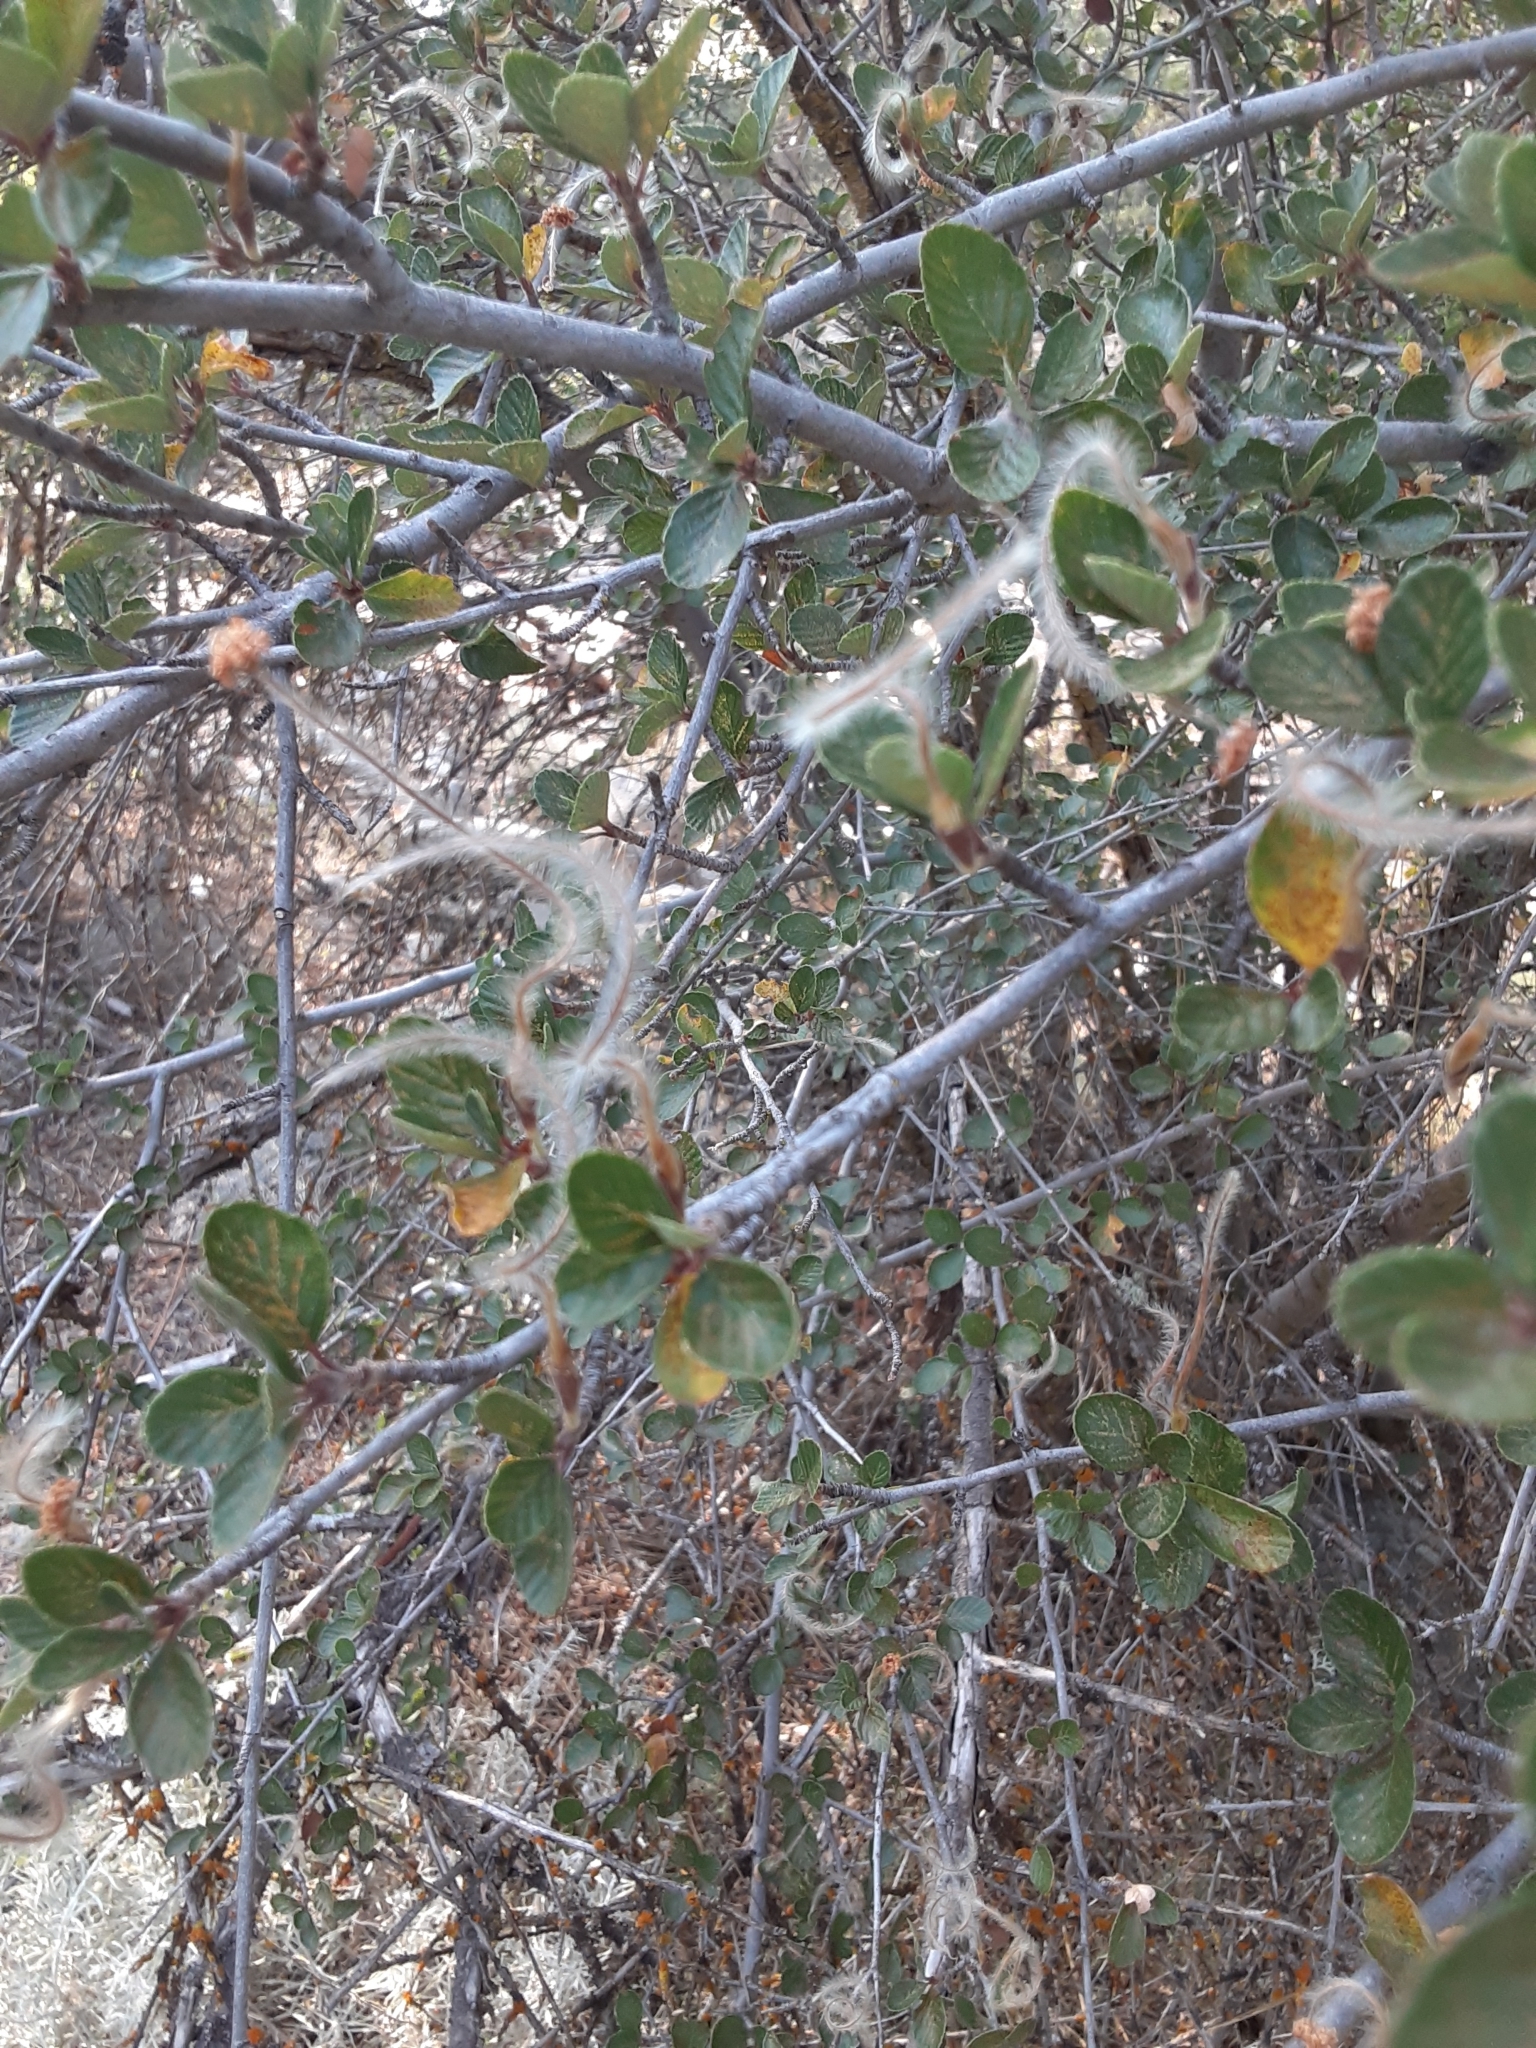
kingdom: Plantae
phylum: Tracheophyta
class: Magnoliopsida
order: Rosales
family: Rosaceae
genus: Cercocarpus
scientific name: Cercocarpus betuloides
